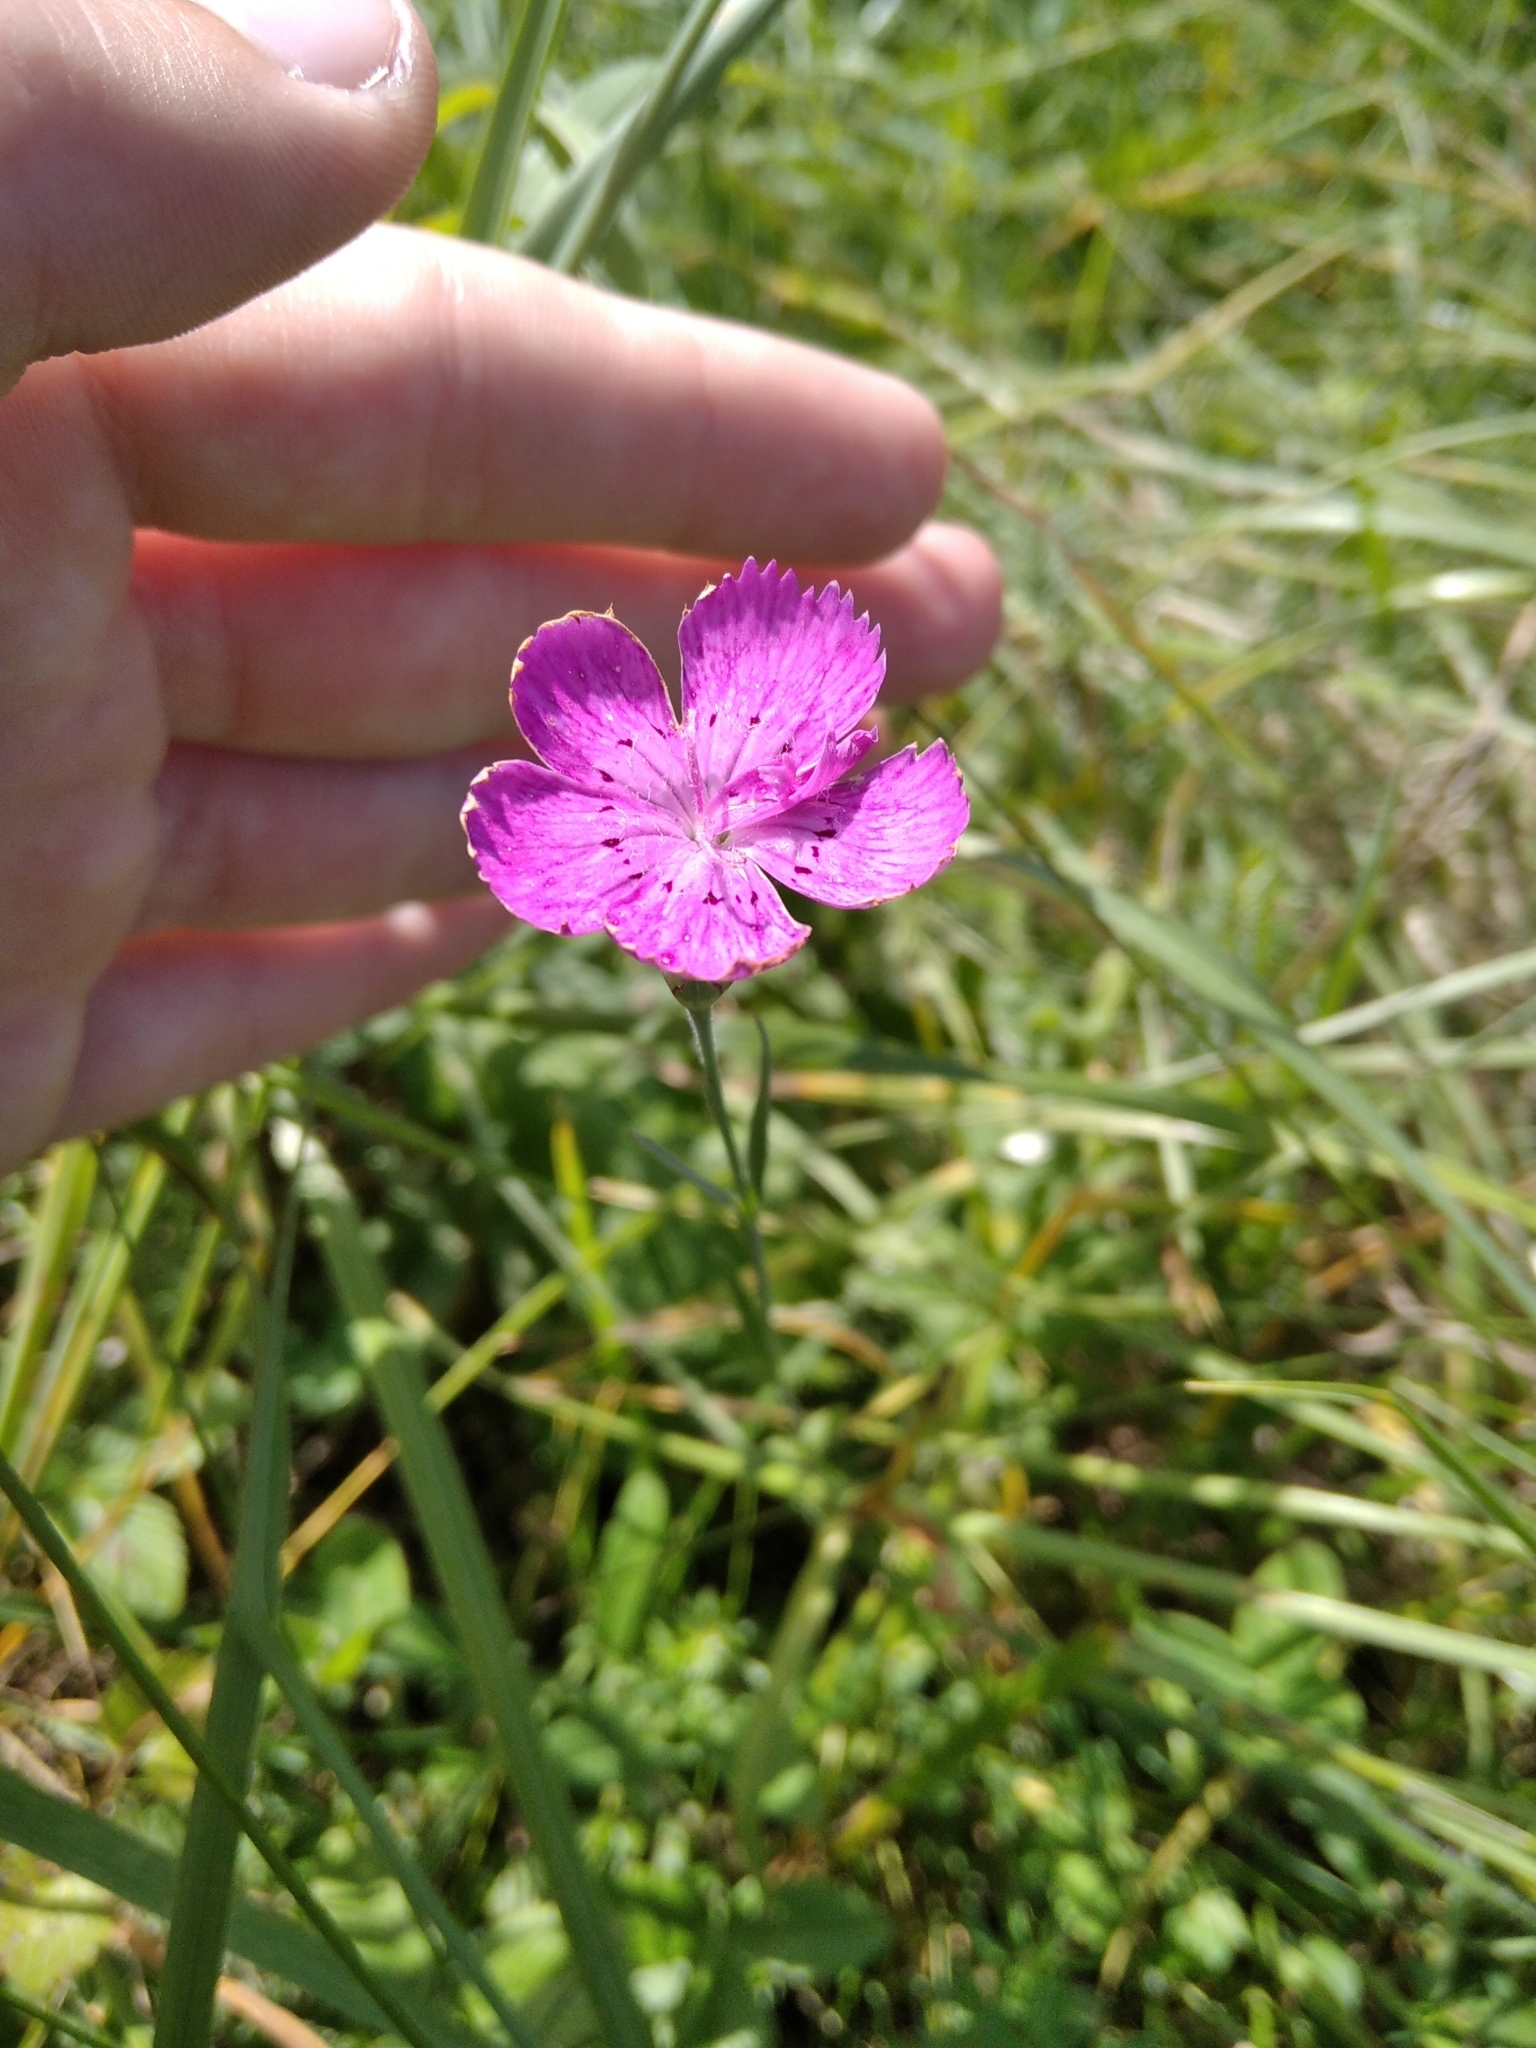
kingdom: Plantae
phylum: Tracheophyta
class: Magnoliopsida
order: Caryophyllales
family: Caryophyllaceae
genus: Dianthus
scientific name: Dianthus chinensis
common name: Rainbow pink
